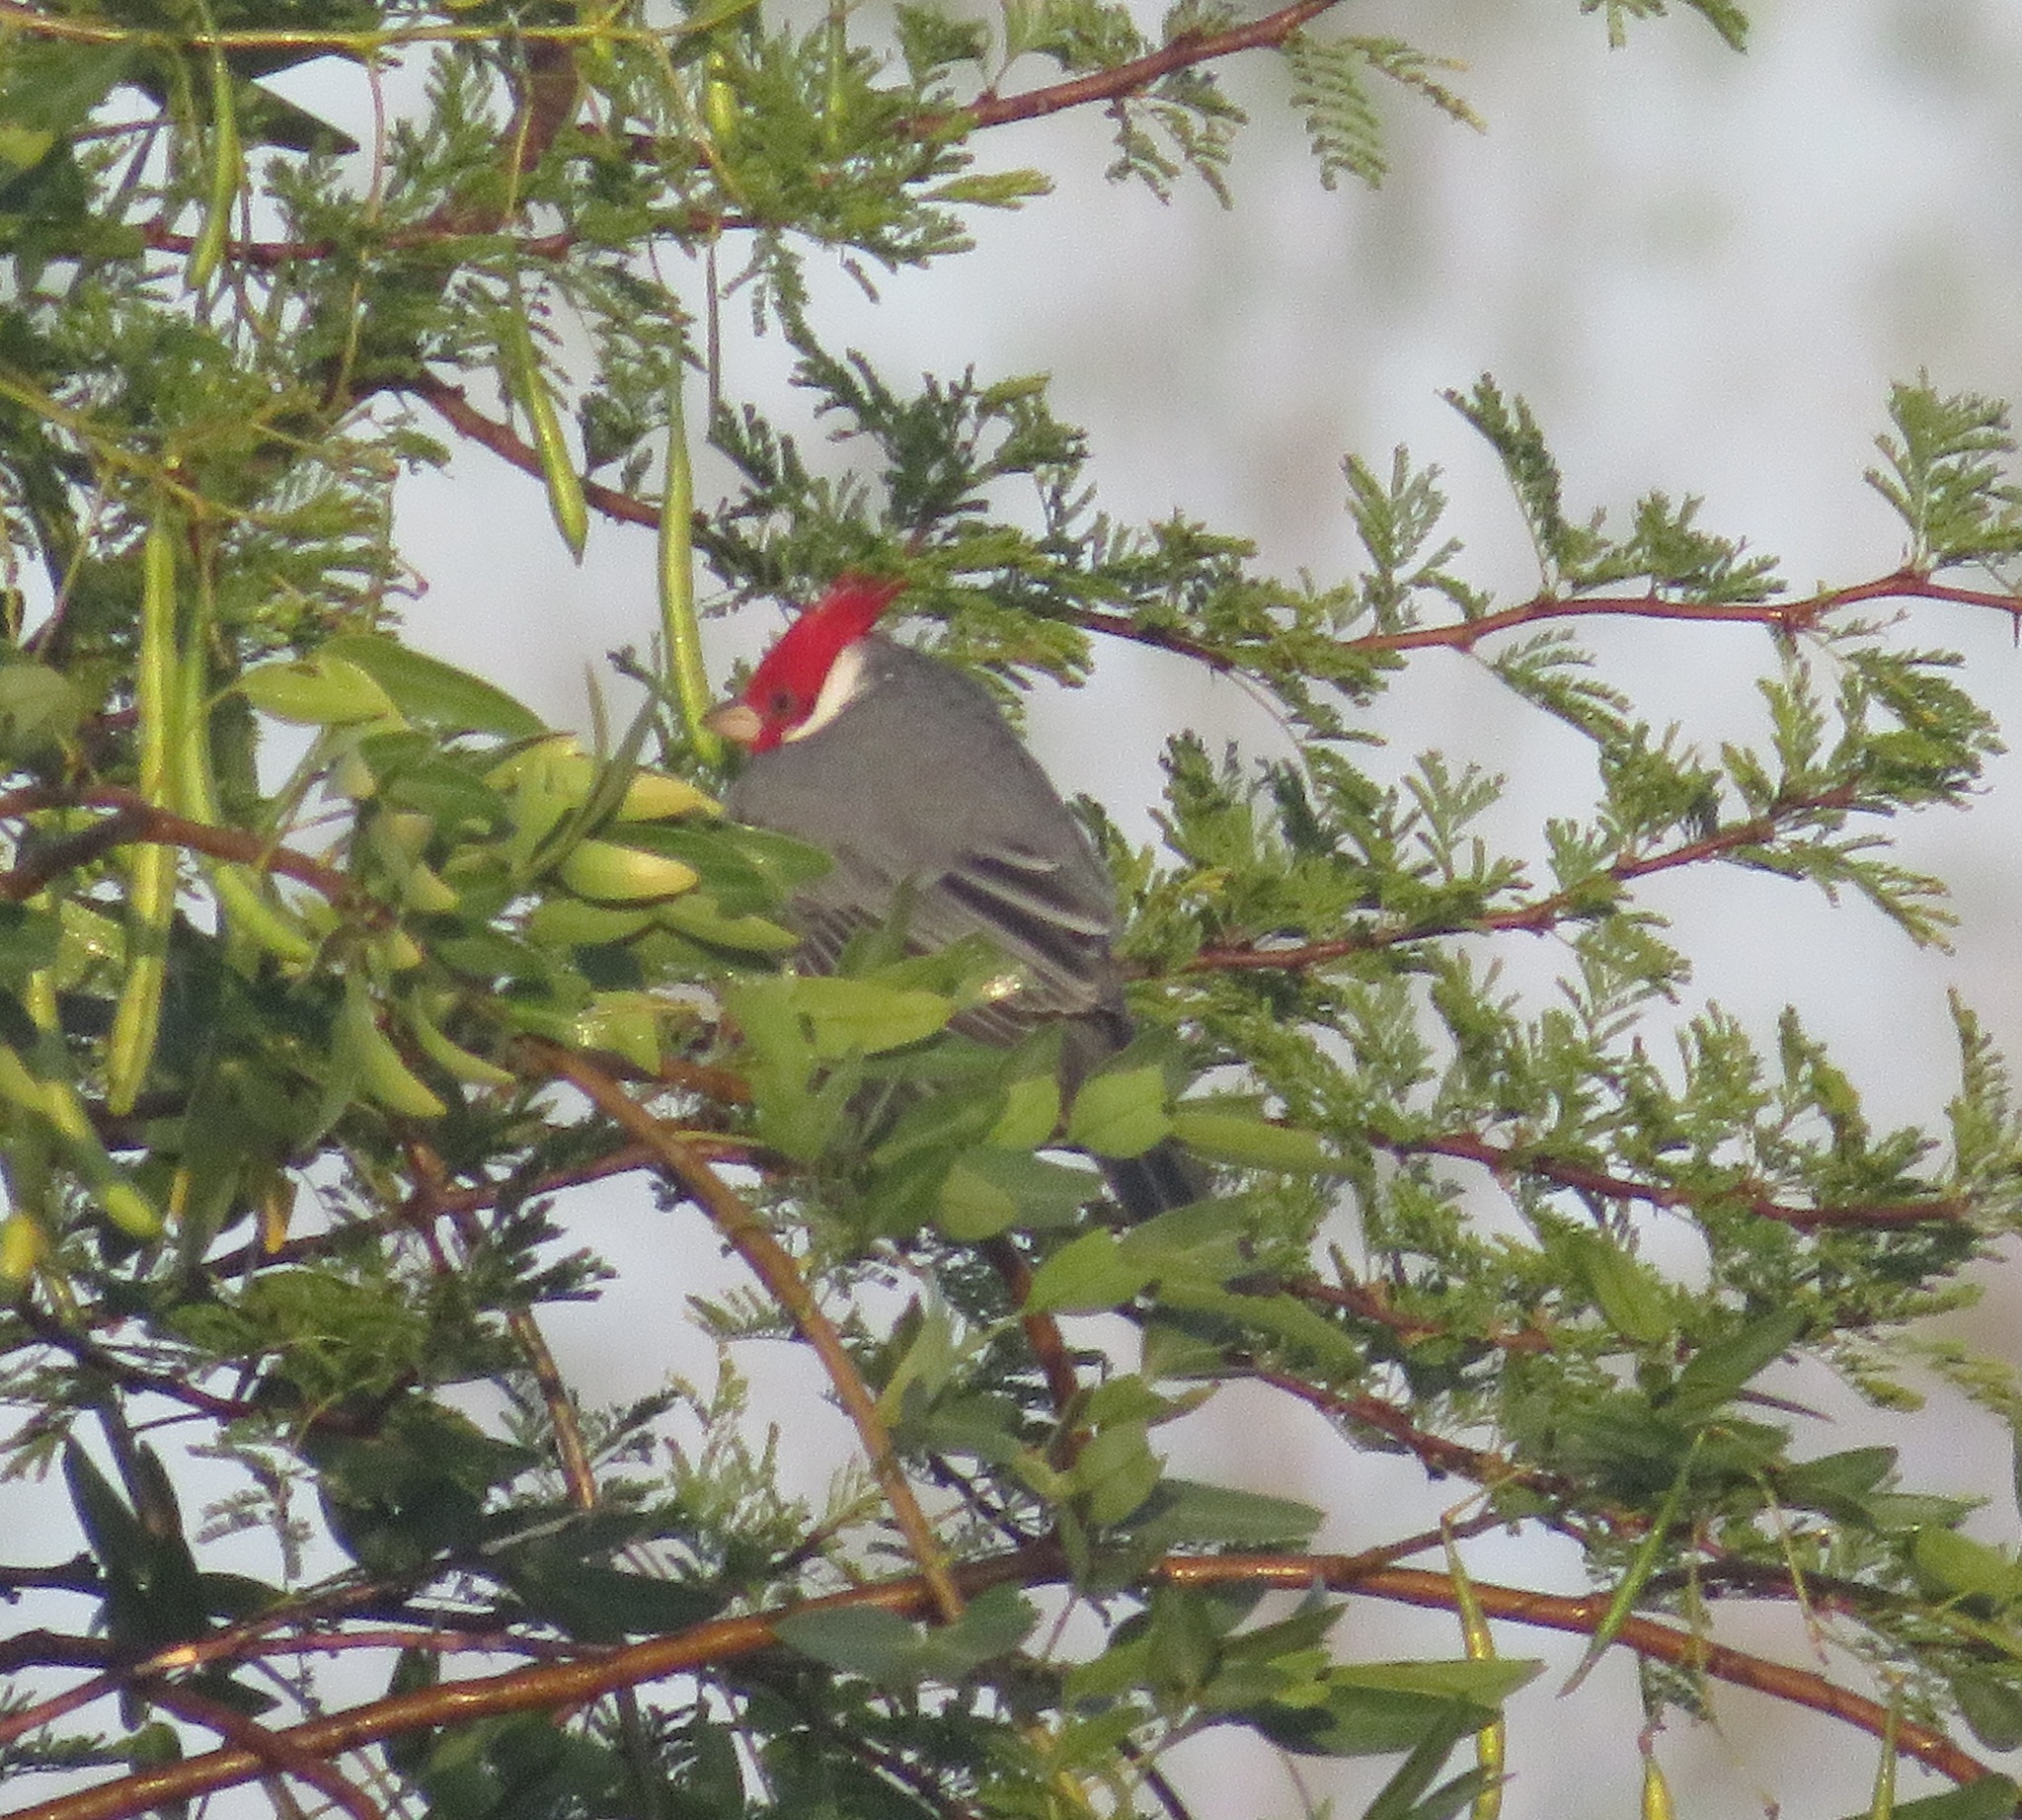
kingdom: Animalia
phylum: Chordata
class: Aves
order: Passeriformes
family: Thraupidae
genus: Paroaria
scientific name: Paroaria coronata
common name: Red-crested cardinal
